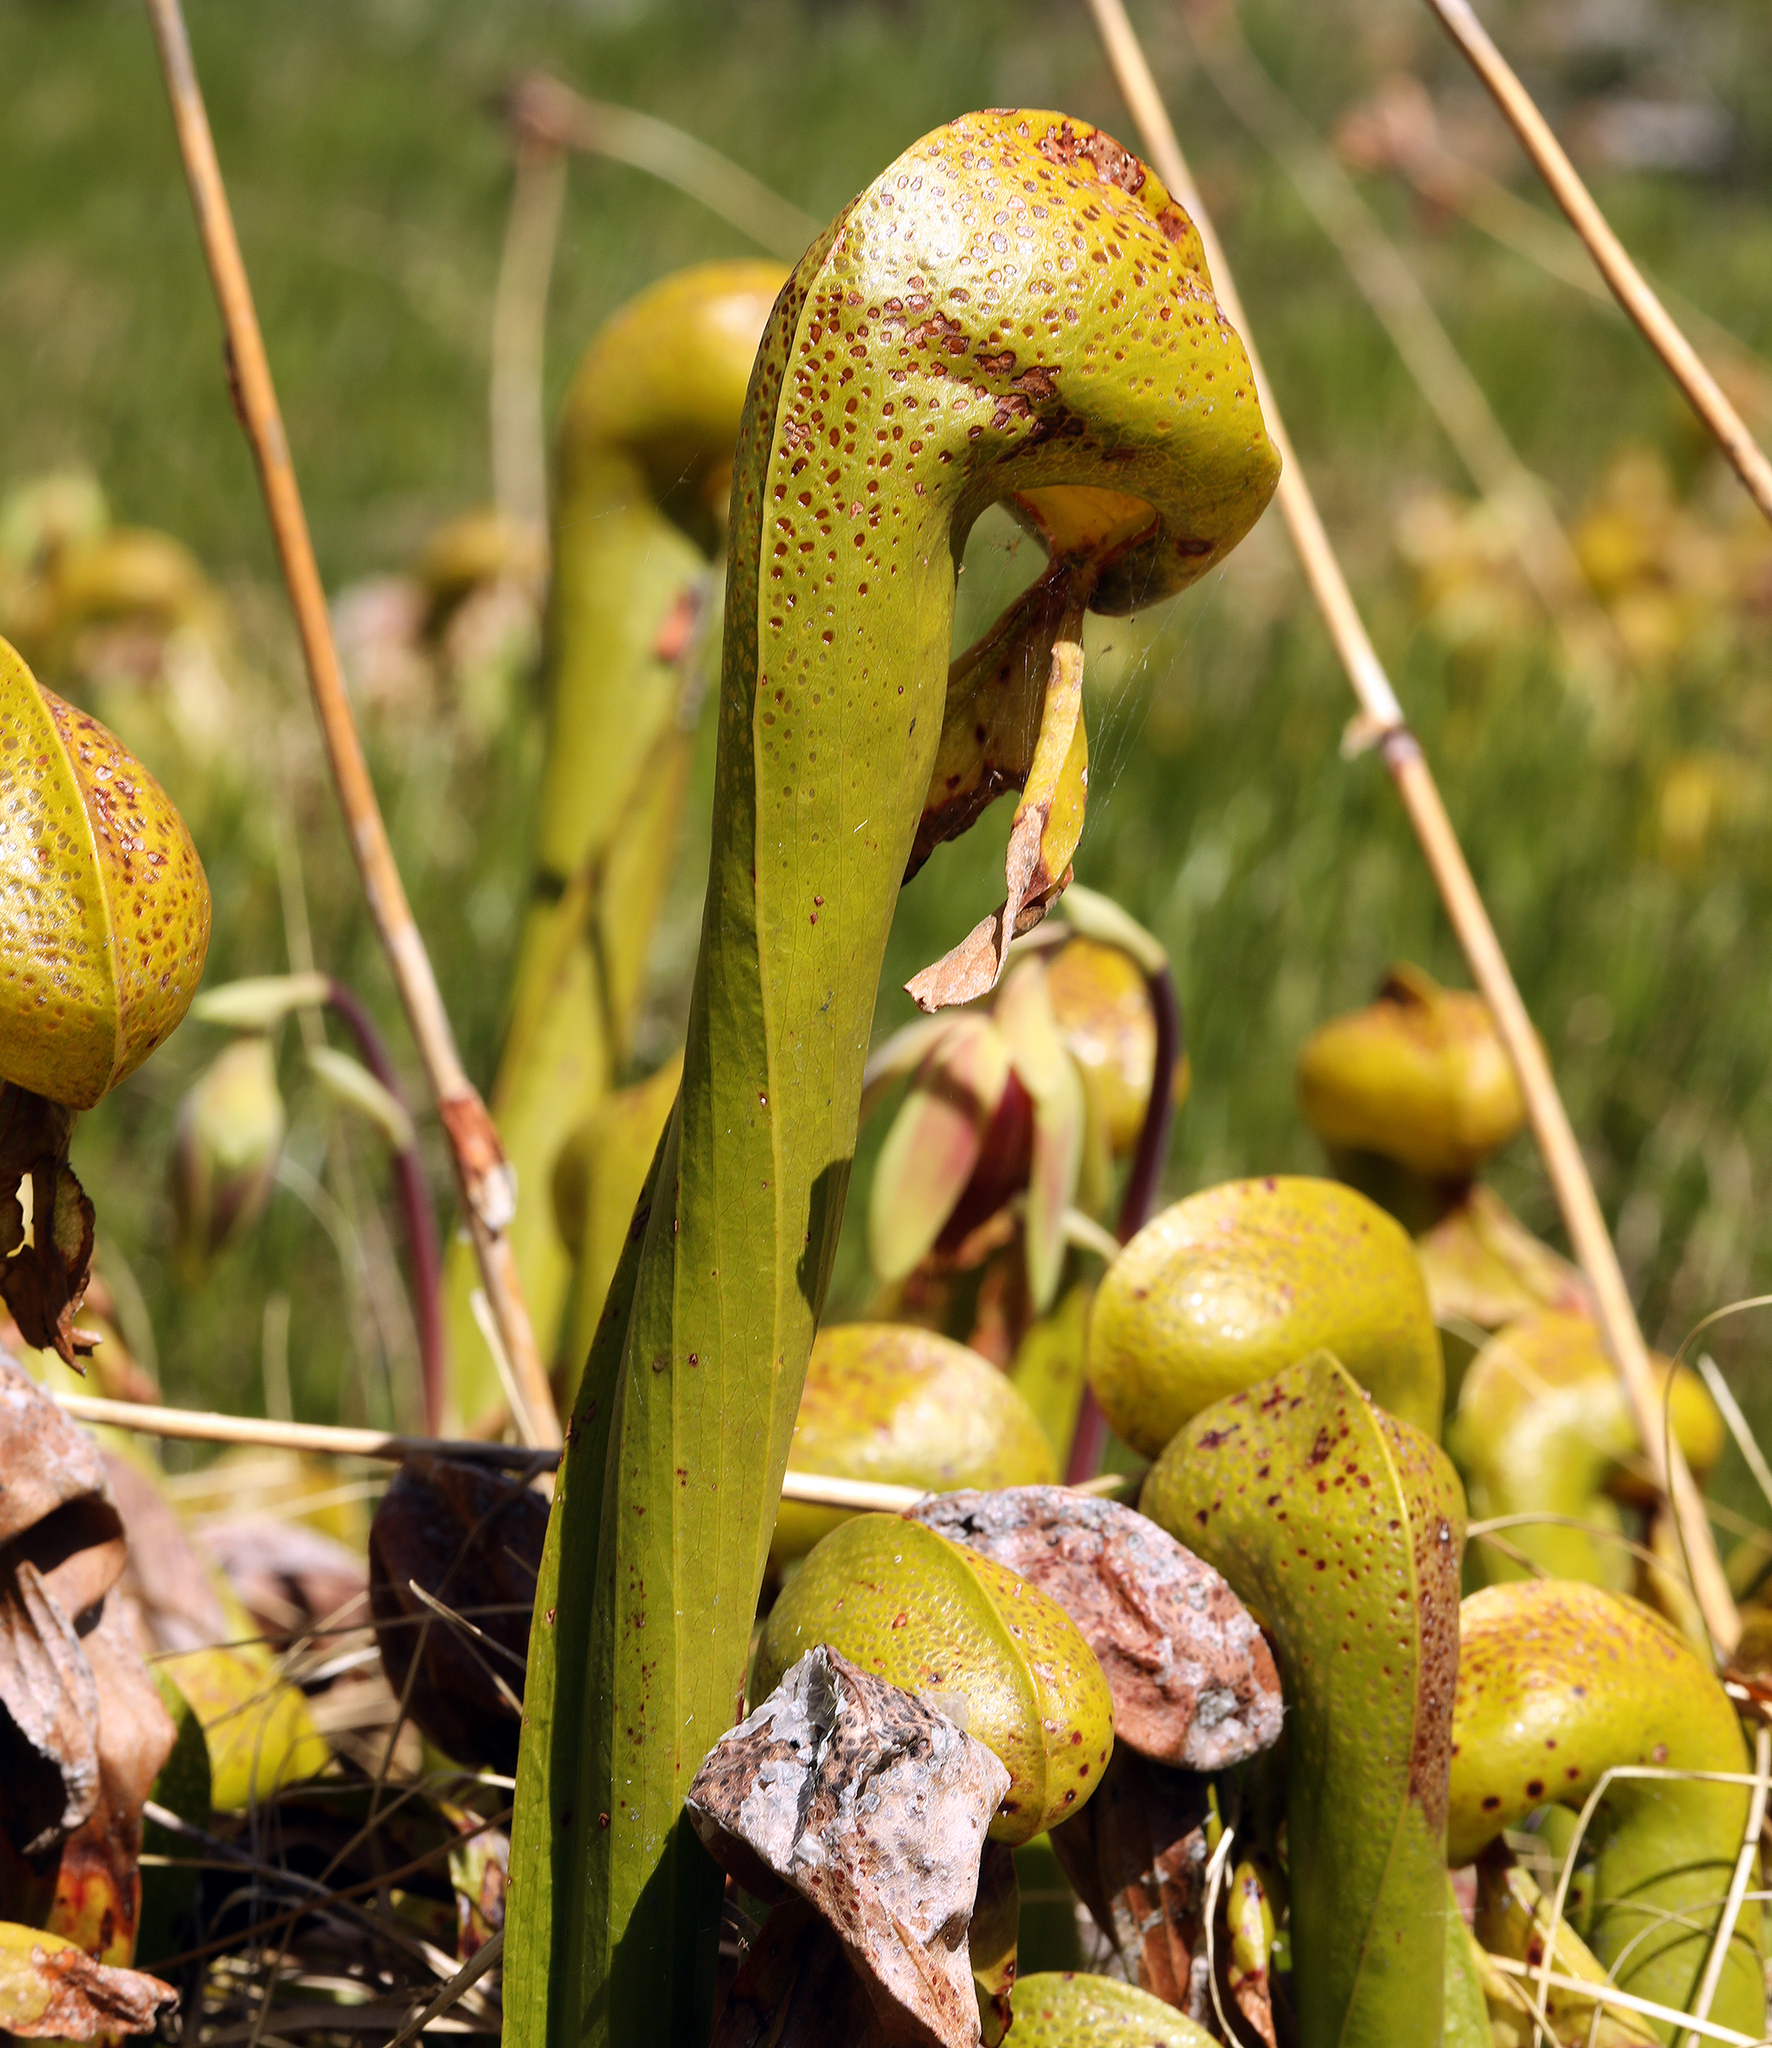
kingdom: Plantae
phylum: Tracheophyta
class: Magnoliopsida
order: Ericales
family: Sarraceniaceae
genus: Darlingtonia
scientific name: Darlingtonia californica
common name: California pitcher plant
